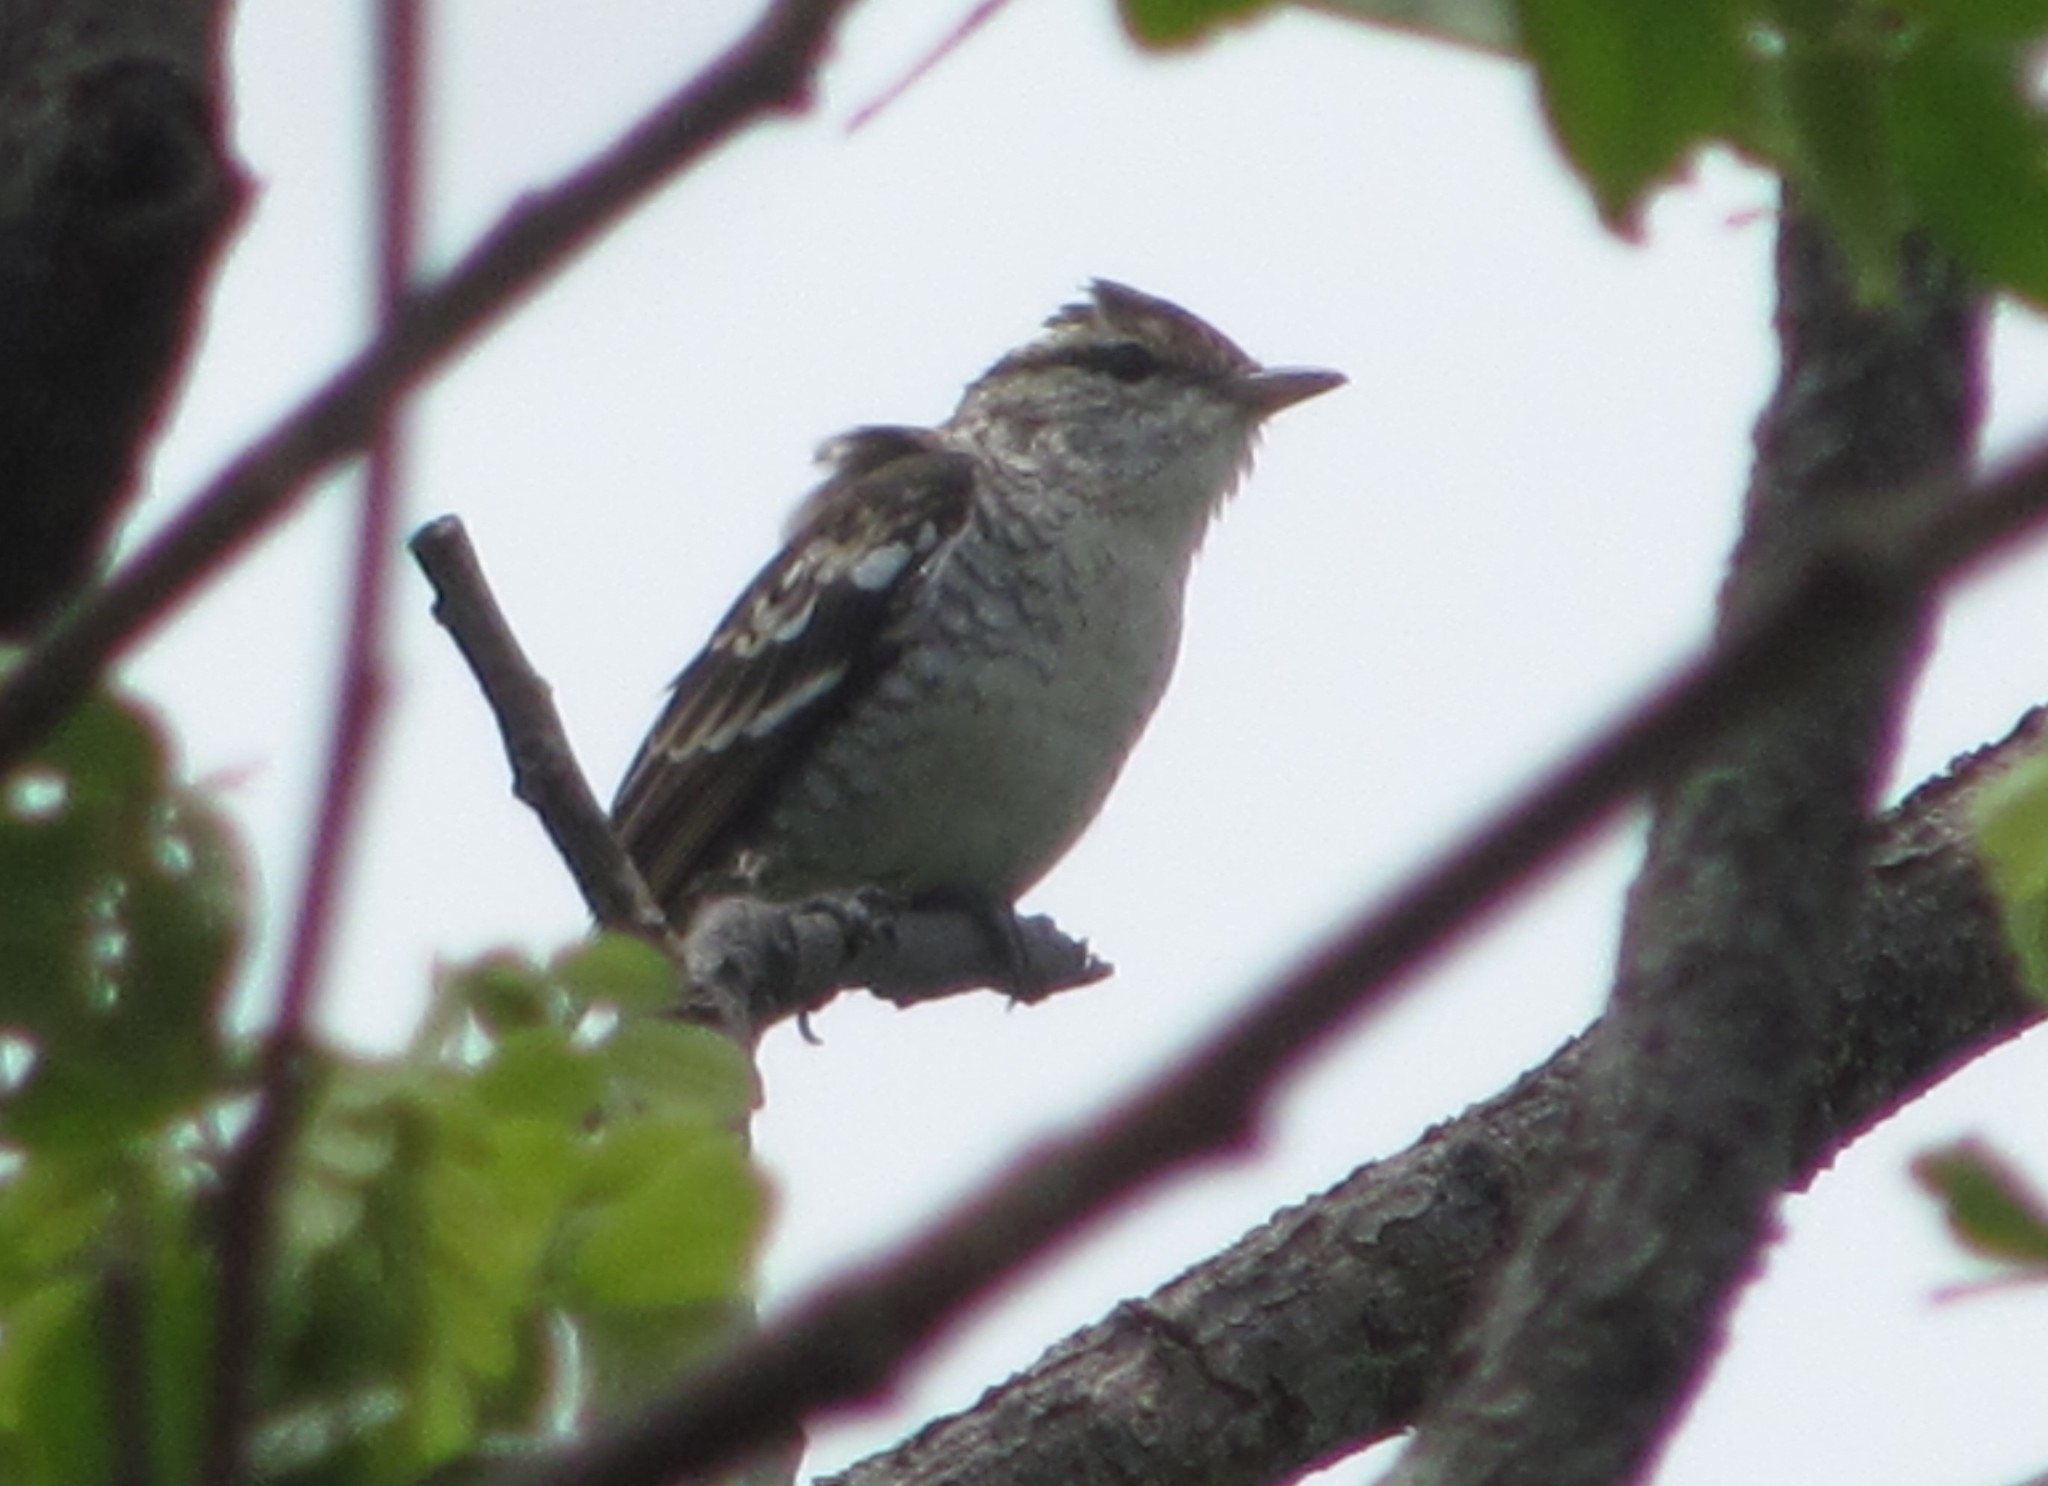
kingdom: Animalia
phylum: Chordata
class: Aves
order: Passeriformes
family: Campephagidae
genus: Lalage
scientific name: Lalage maculosa
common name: Polynesian triller
